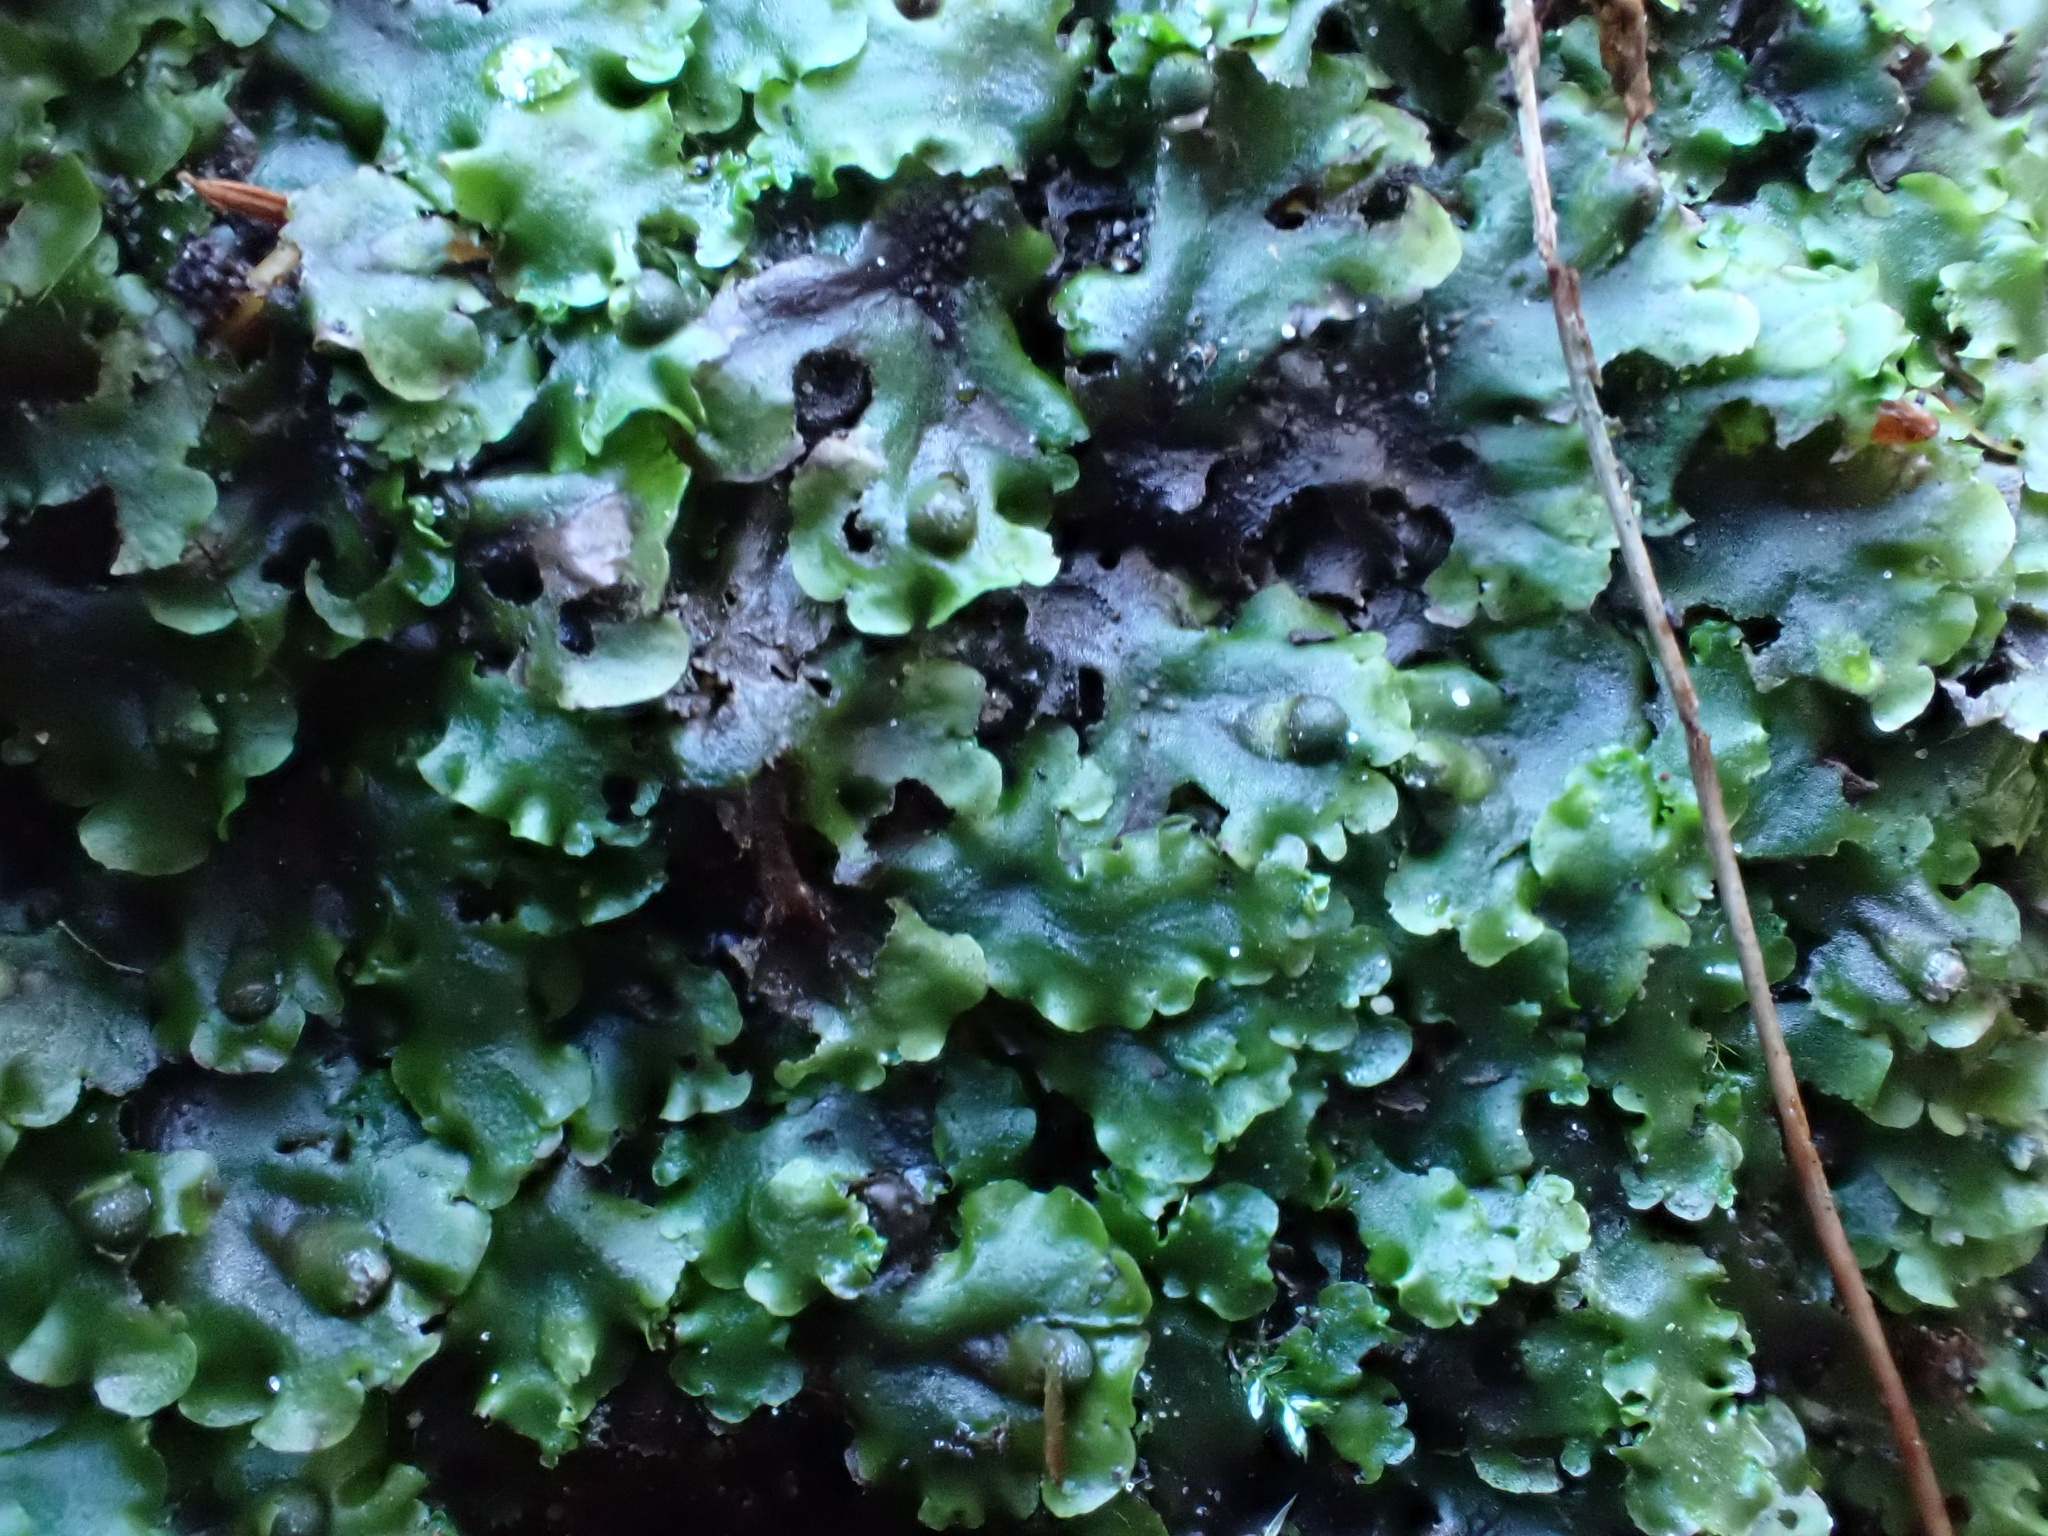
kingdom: Plantae
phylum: Marchantiophyta
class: Jungermanniopsida
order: Pelliales
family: Pelliaceae
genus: Pellia
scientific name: Pellia epiphylla
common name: Common pellia
